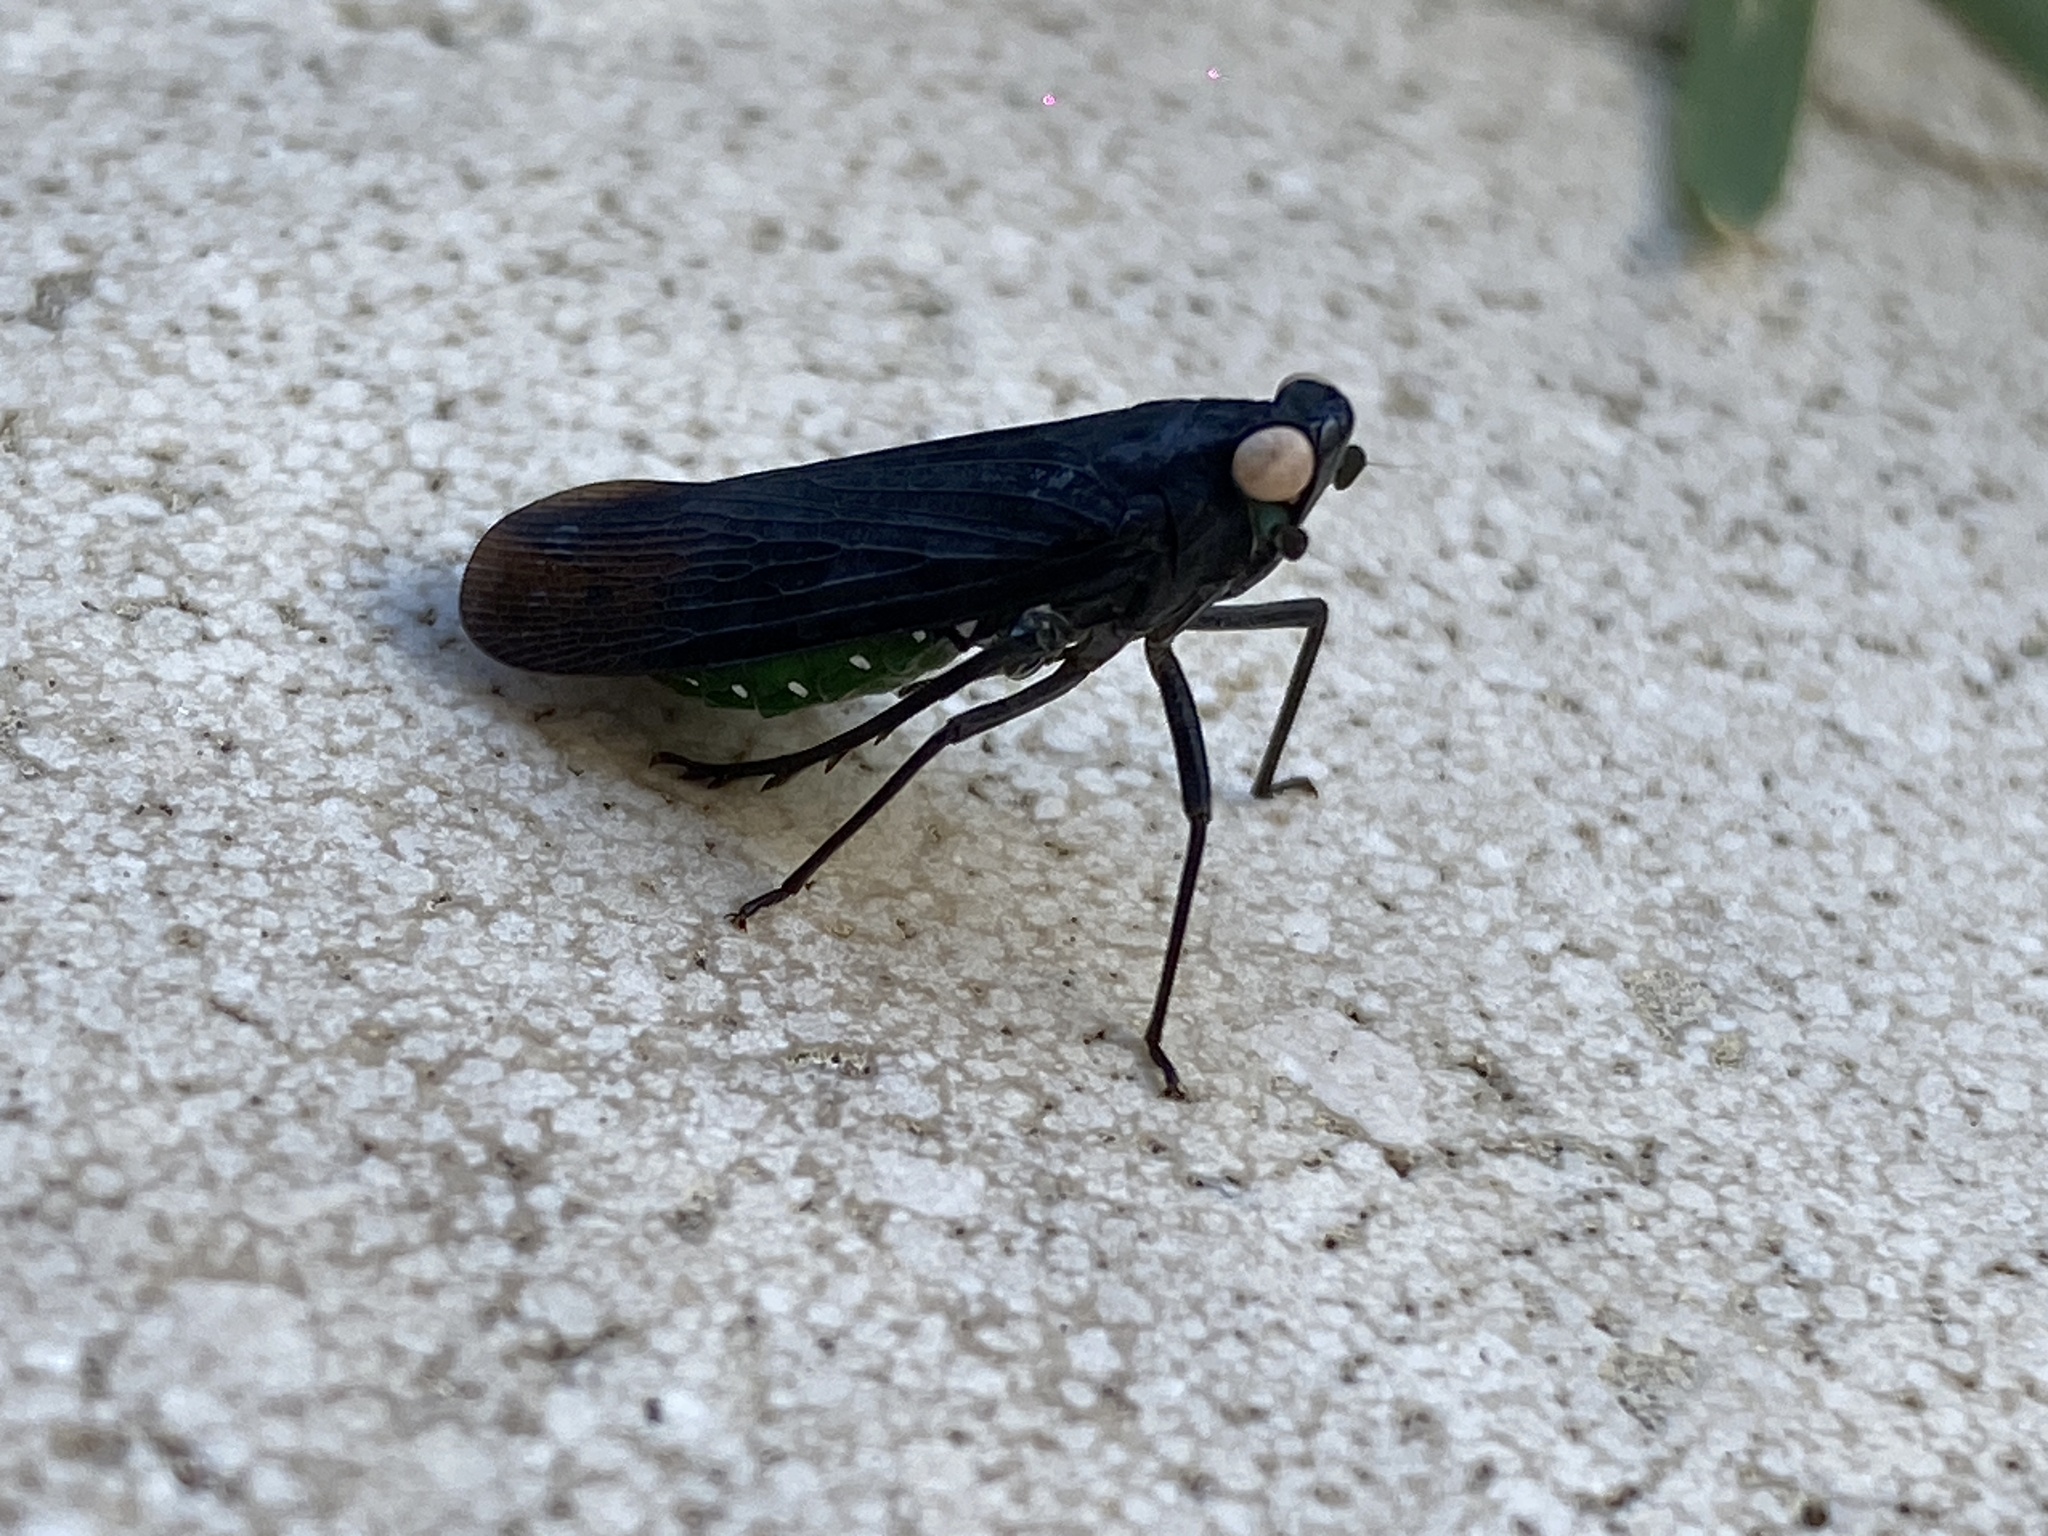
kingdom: Animalia
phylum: Arthropoda
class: Insecta
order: Hemiptera
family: Fulgoridae
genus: Desudaba
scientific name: Desudaba psittacus
